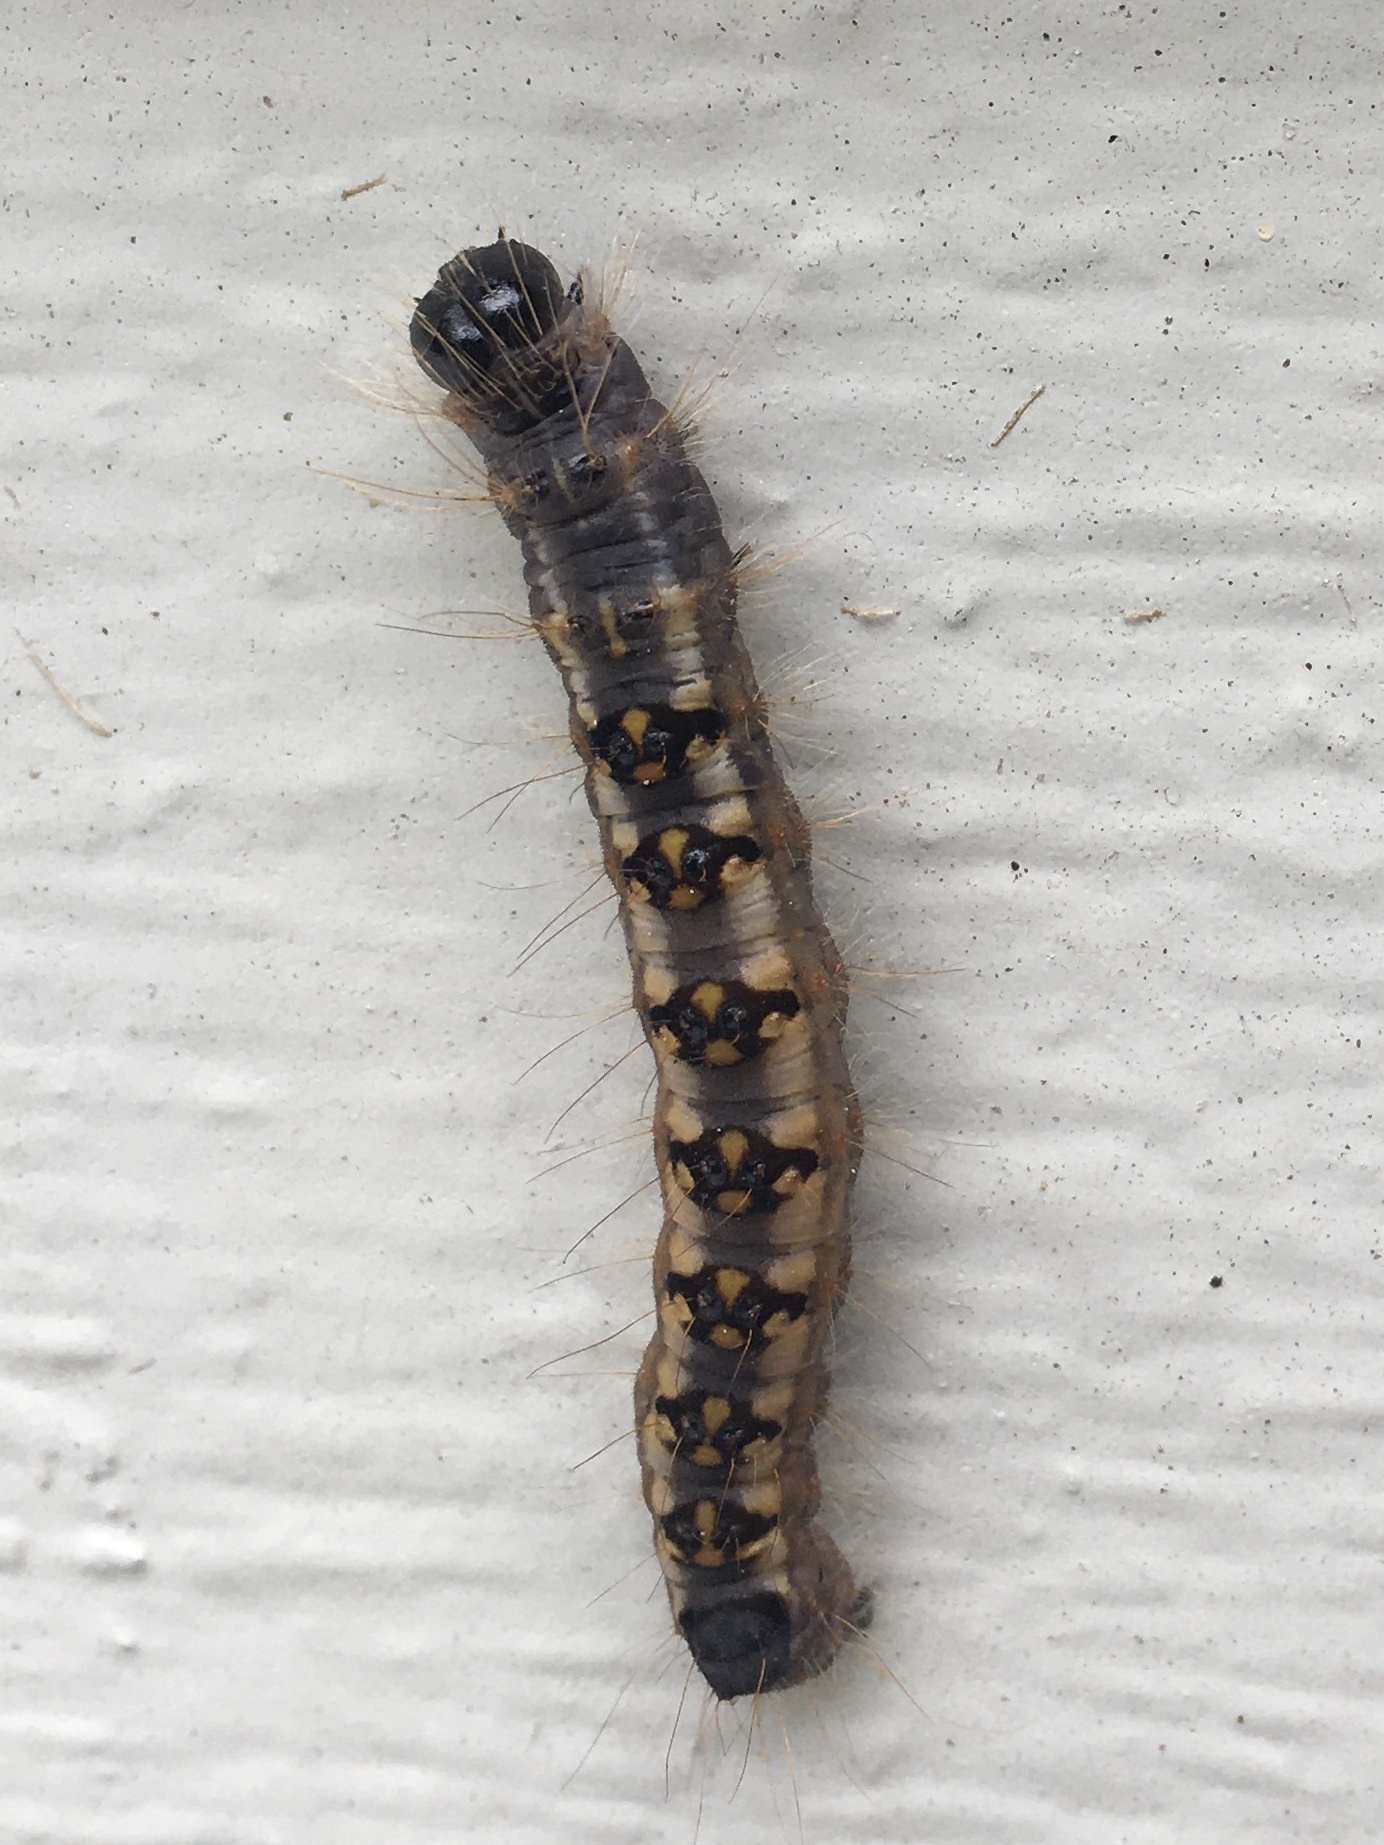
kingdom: Animalia
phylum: Arthropoda
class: Insecta
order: Lepidoptera
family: Noctuidae
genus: Acronicta
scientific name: Acronicta interrupta
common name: Interrupted dagger
